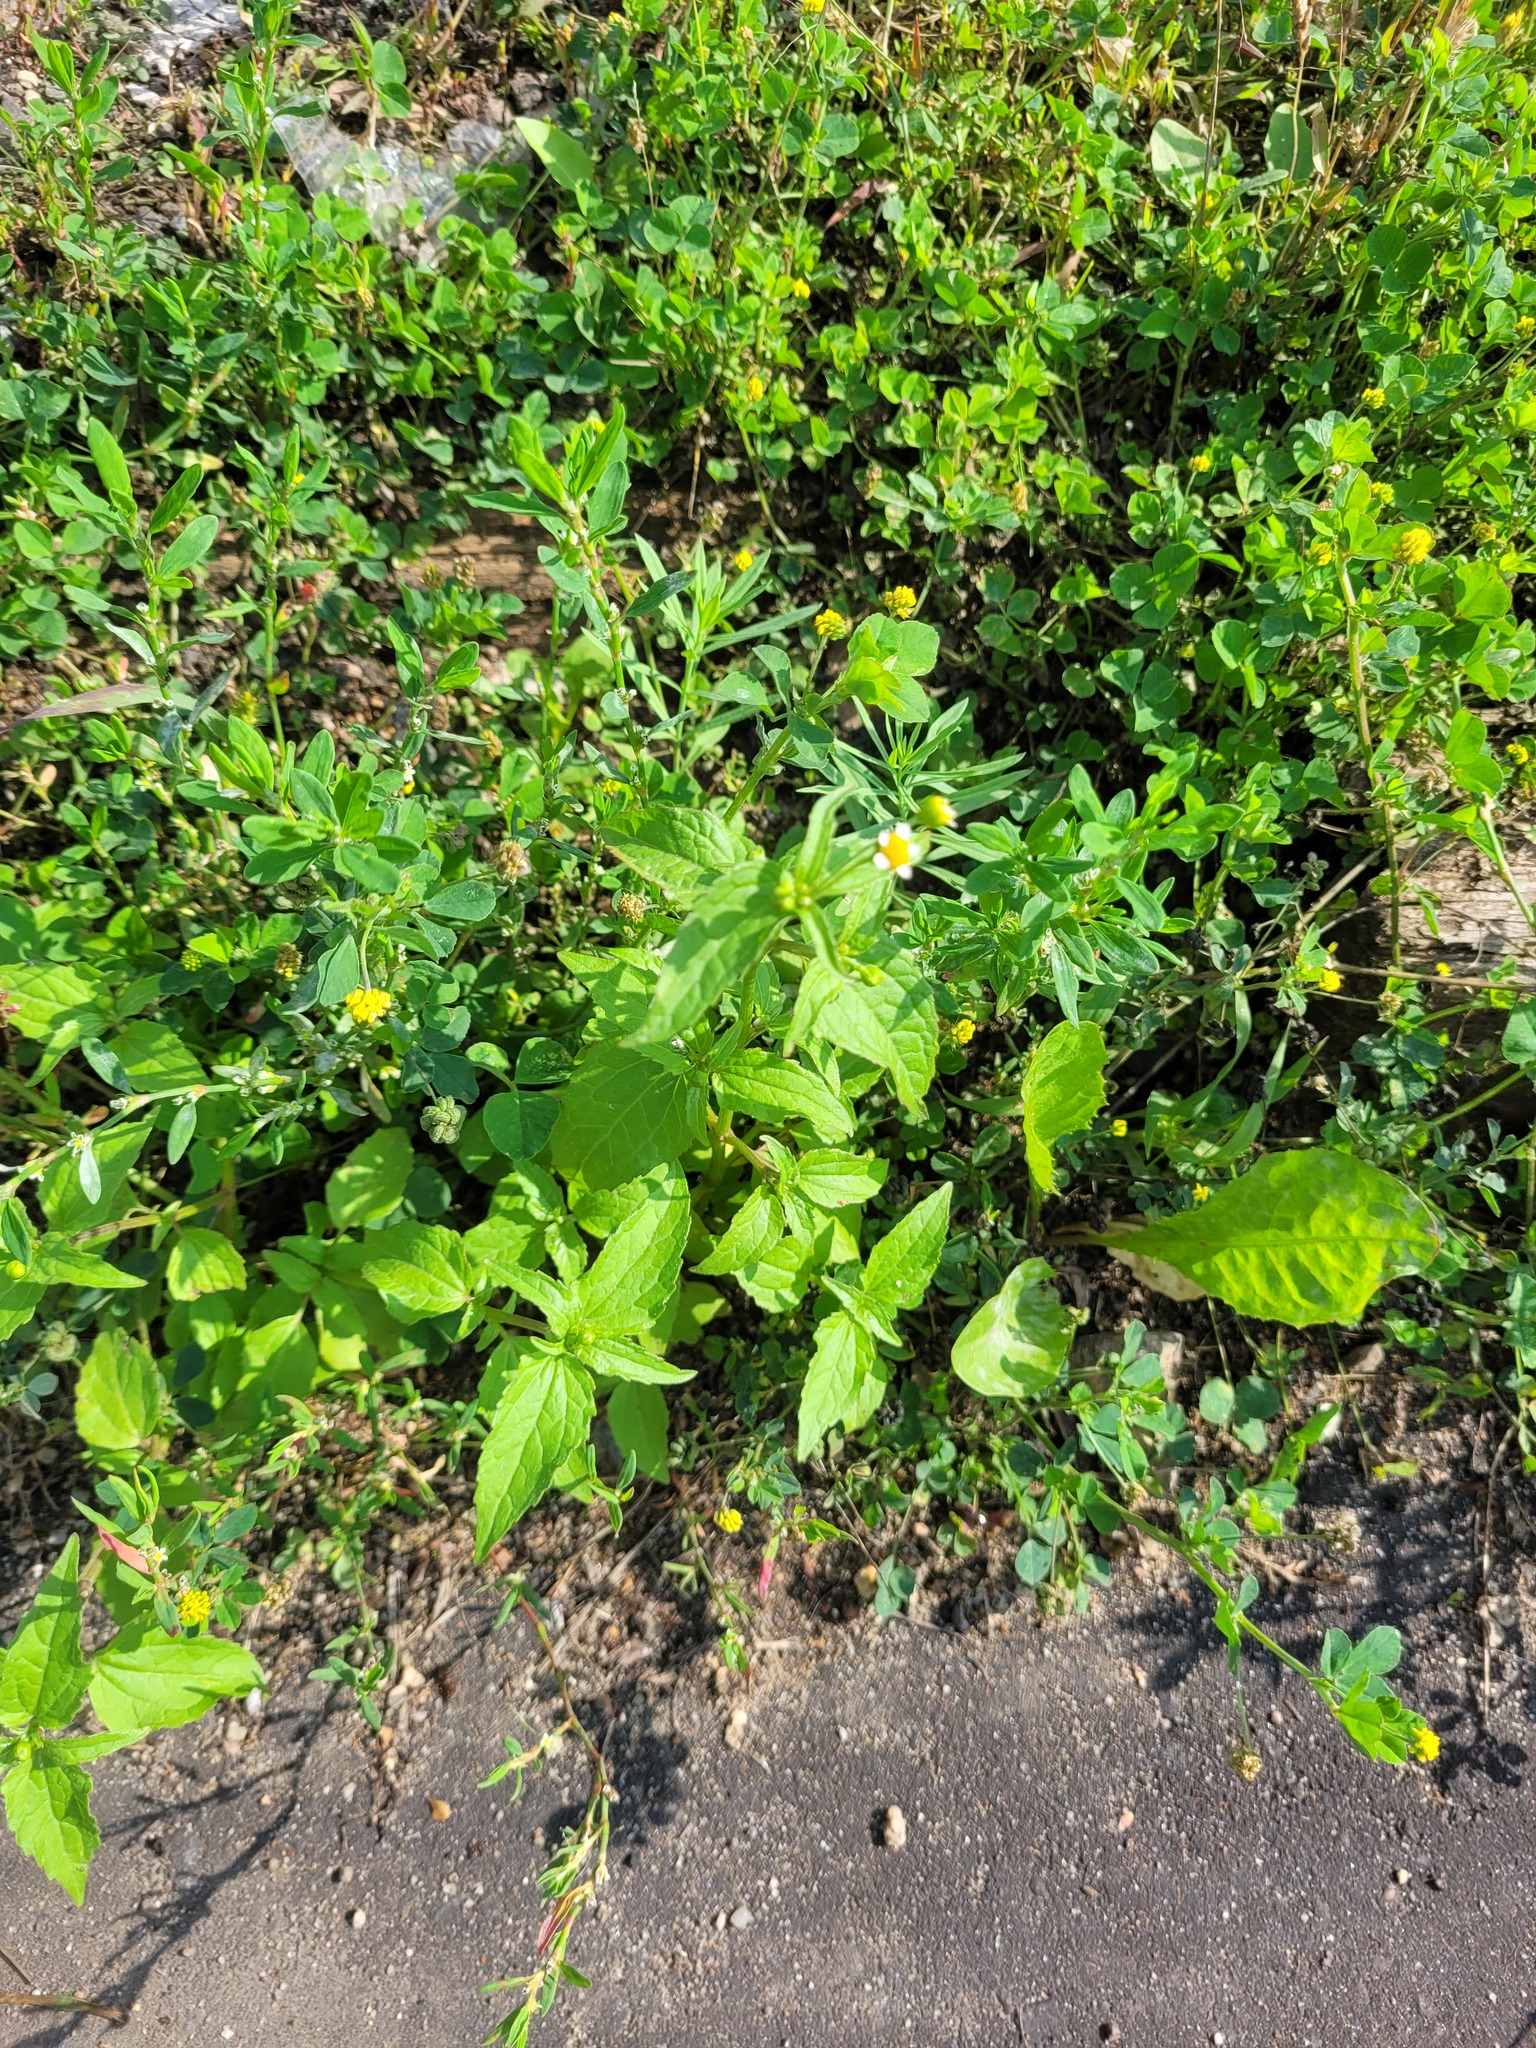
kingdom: Plantae
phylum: Tracheophyta
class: Magnoliopsida
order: Asterales
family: Asteraceae
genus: Galinsoga
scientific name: Galinsoga parviflora
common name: Gallant soldier
